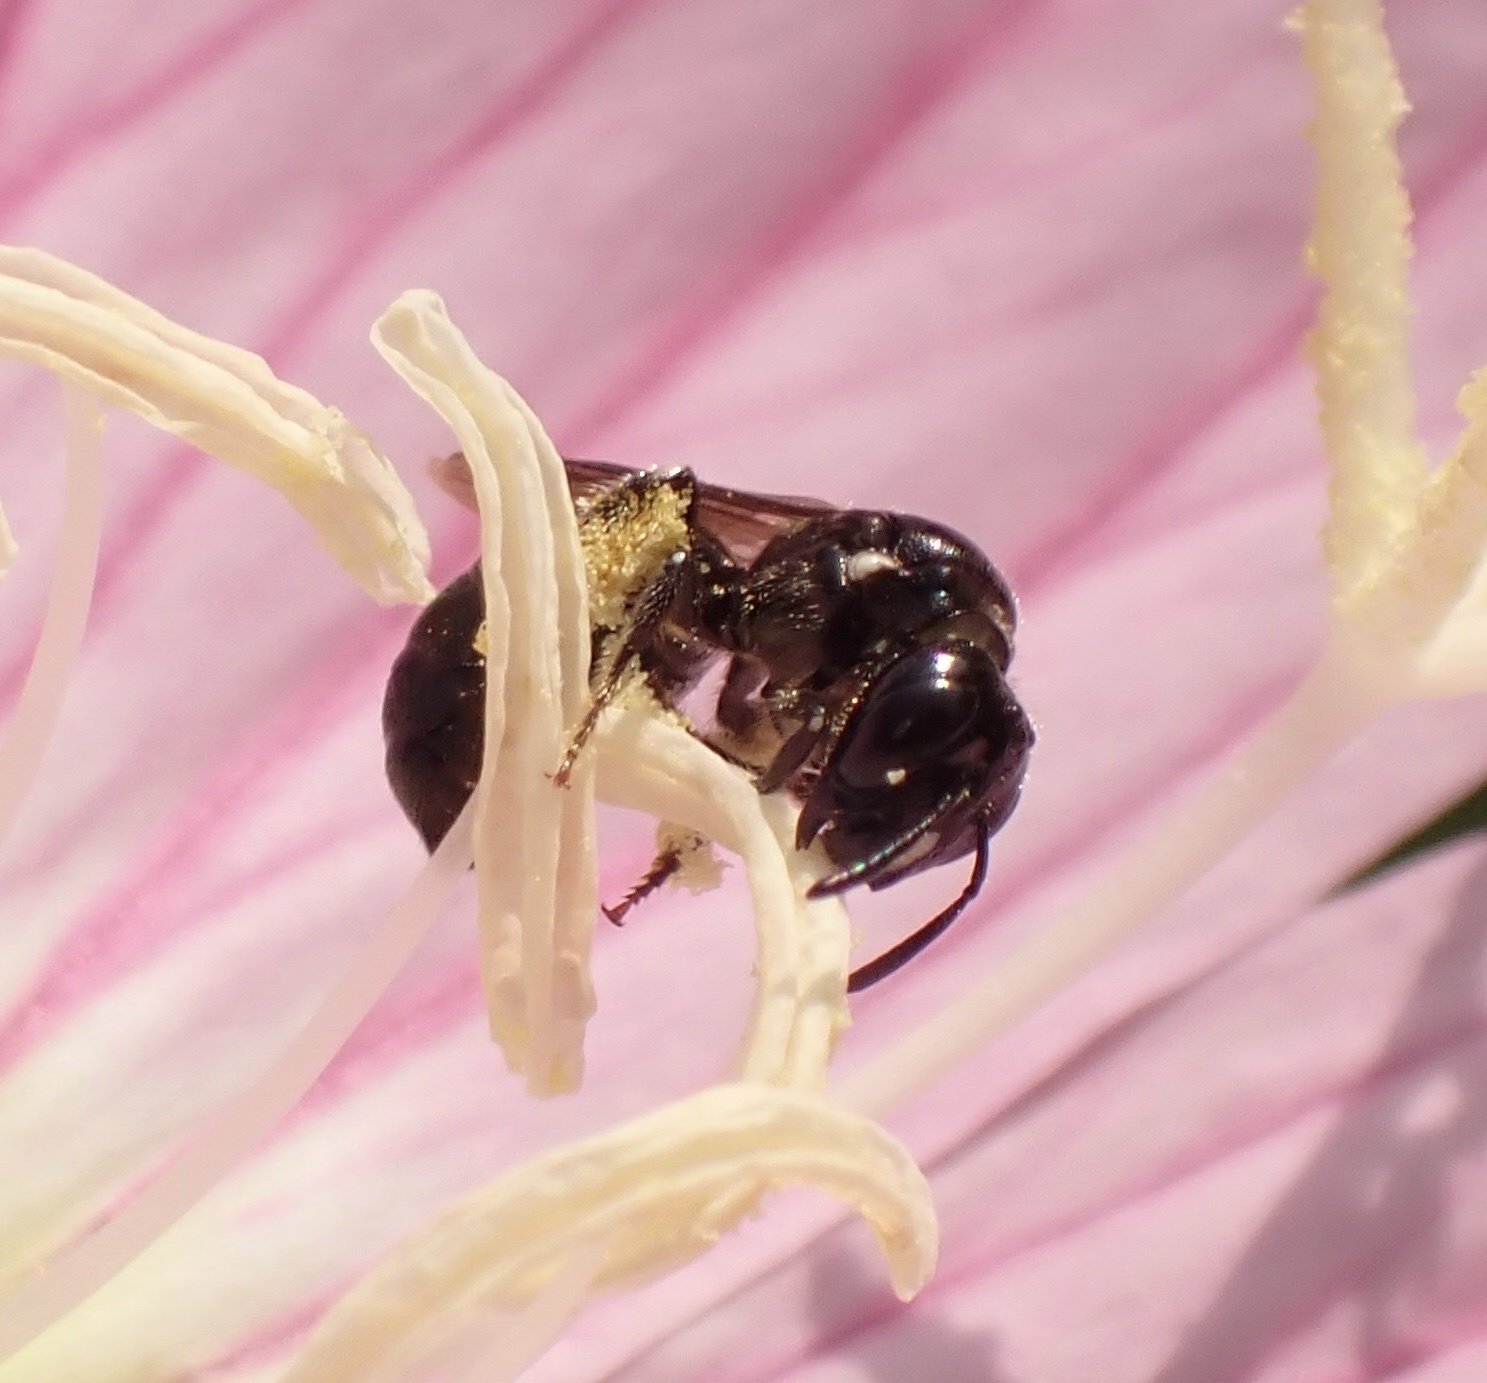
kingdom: Animalia
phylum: Arthropoda
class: Insecta
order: Hymenoptera
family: Apidae
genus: Ceratina
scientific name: Ceratina cucurbitina
